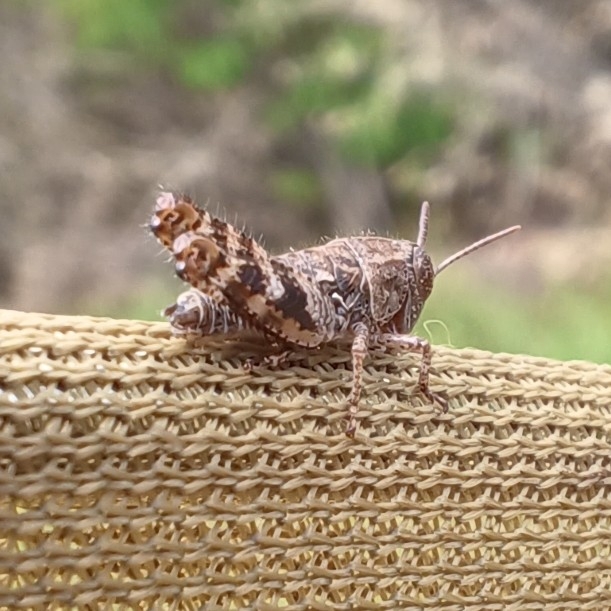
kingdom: Animalia
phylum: Arthropoda
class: Insecta
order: Orthoptera
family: Acrididae
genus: Calliptamus
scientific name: Calliptamus italicus
